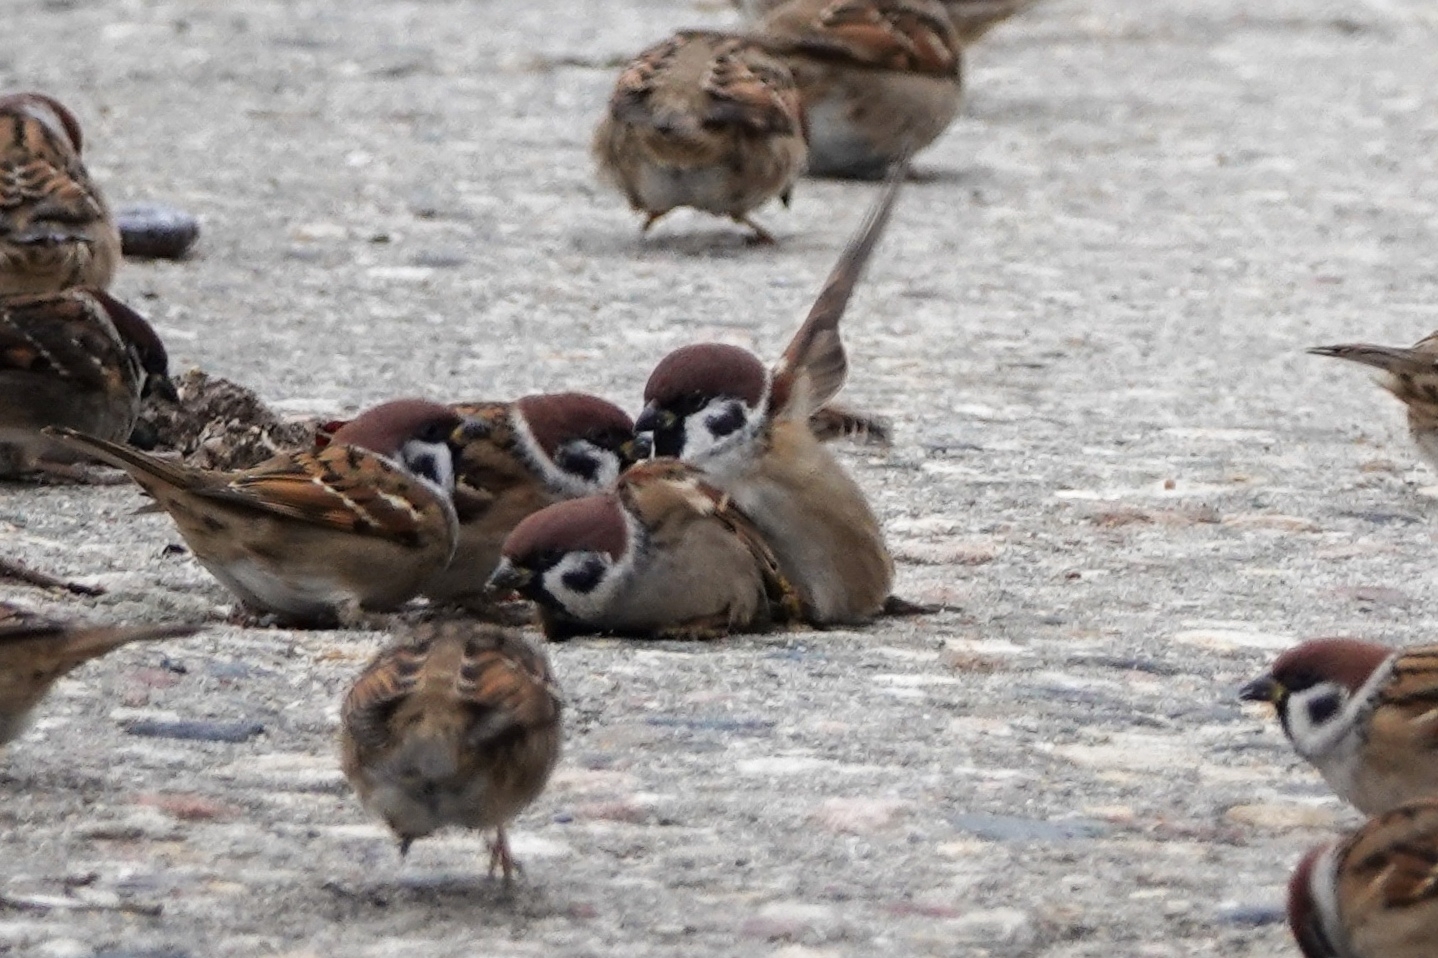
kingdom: Animalia
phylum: Chordata
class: Aves
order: Passeriformes
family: Passeridae
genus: Passer
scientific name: Passer montanus
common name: Eurasian tree sparrow
